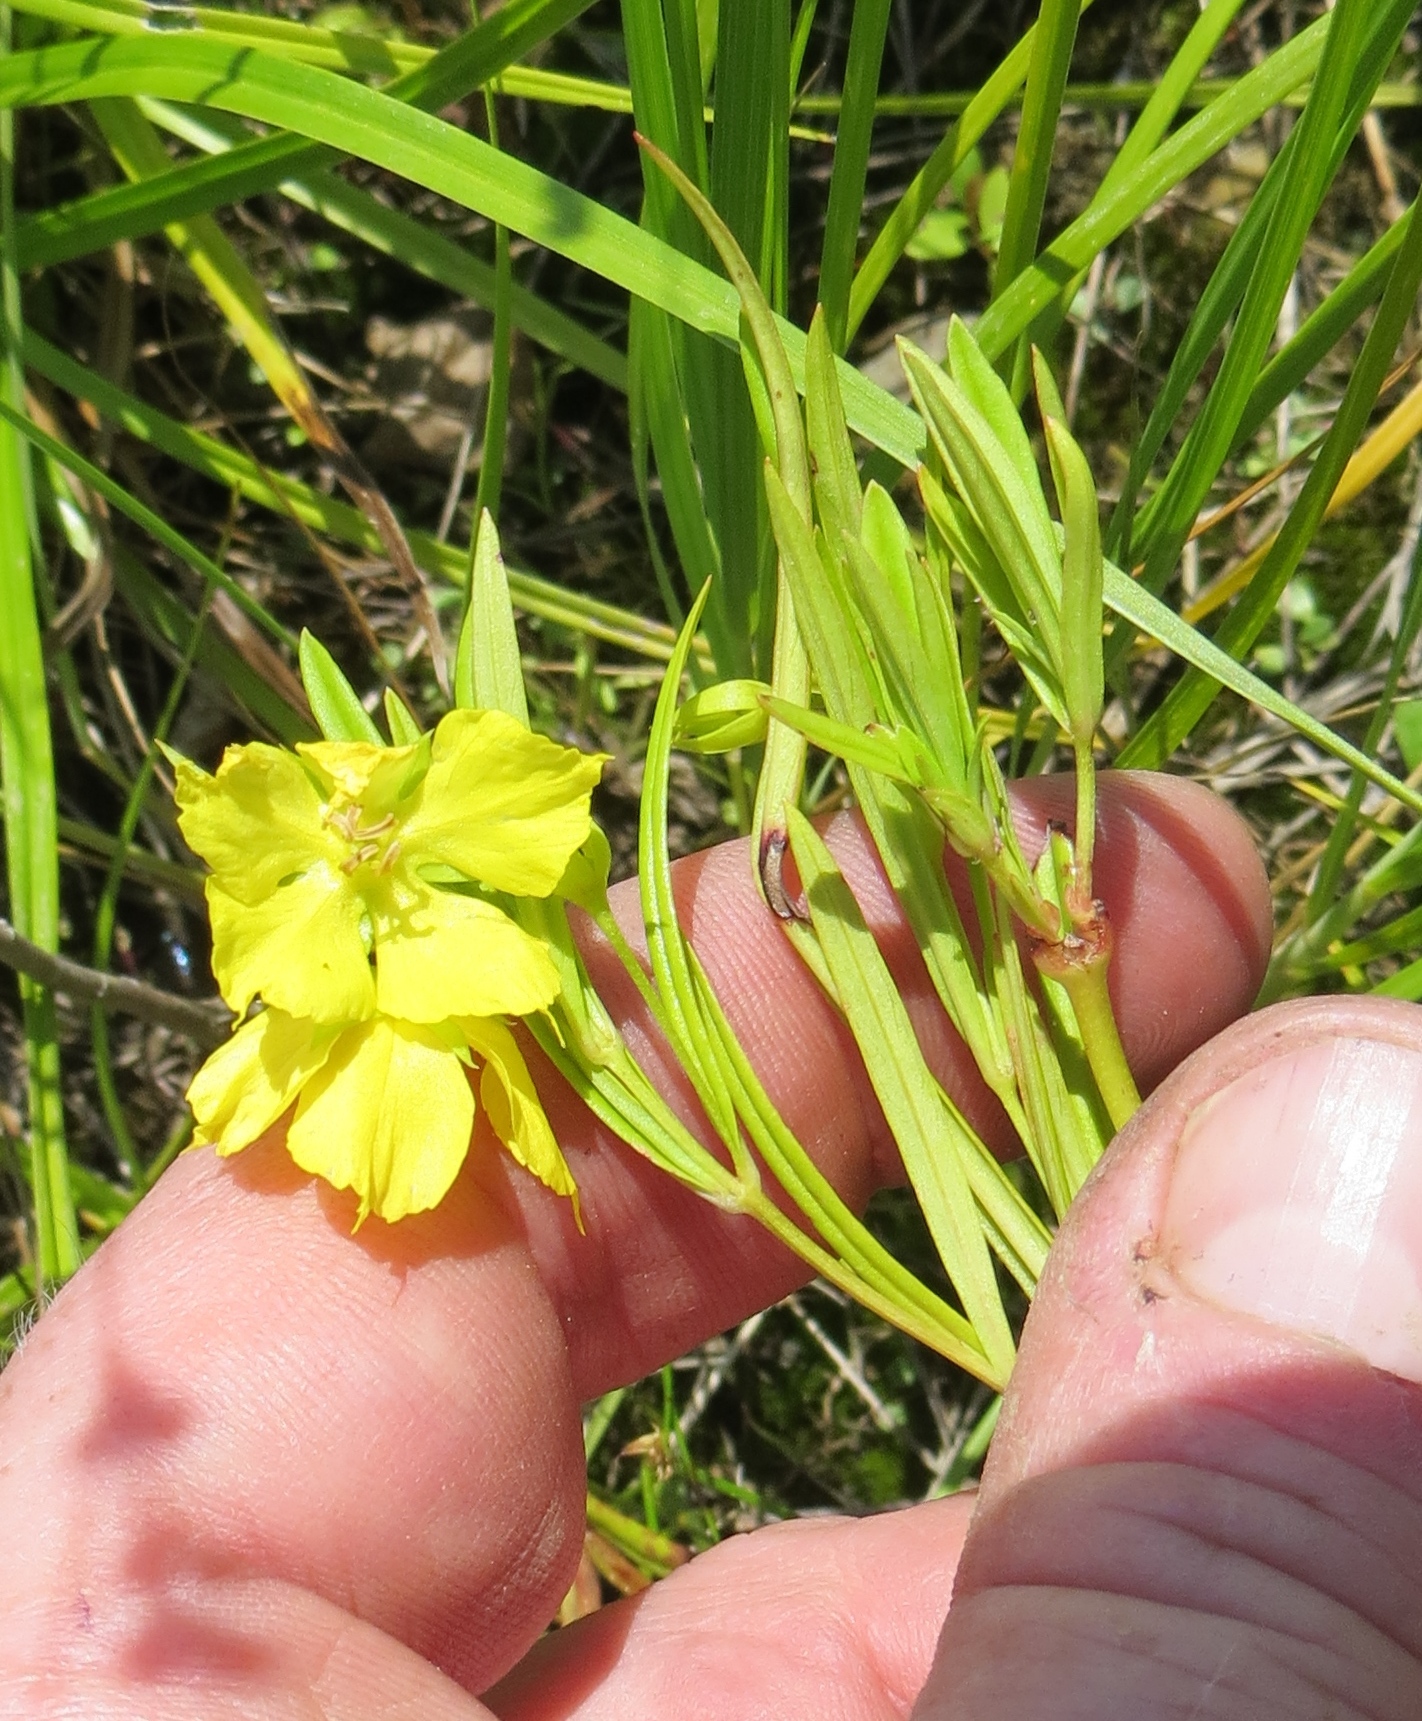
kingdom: Plantae
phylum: Tracheophyta
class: Magnoliopsida
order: Ericales
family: Primulaceae
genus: Lysimachia
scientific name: Lysimachia quadriflora
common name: Four-flowered loosestrife
